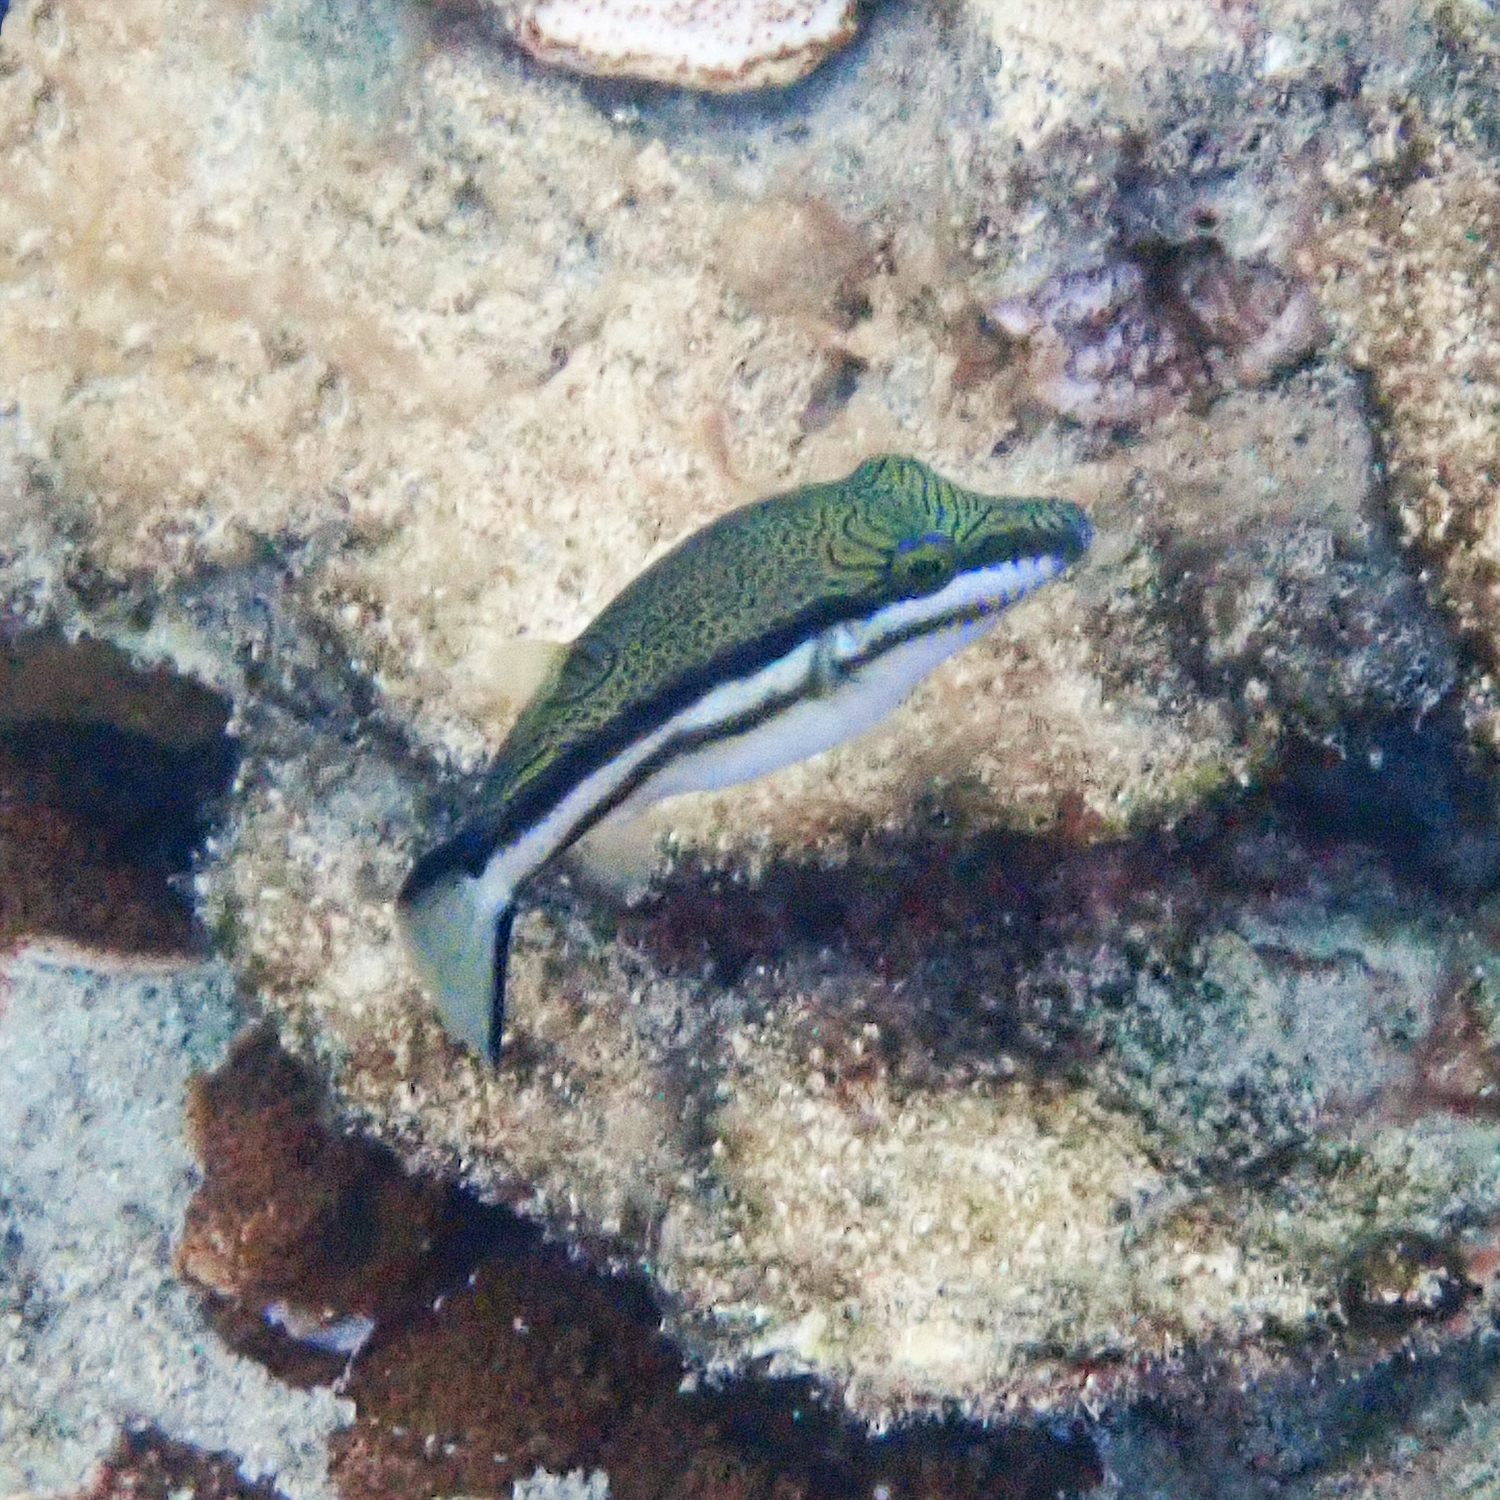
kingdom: Animalia
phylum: Chordata
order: Tetraodontiformes
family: Tetraodontidae
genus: Canthigaster
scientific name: Canthigaster callisterna
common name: Clown toado
